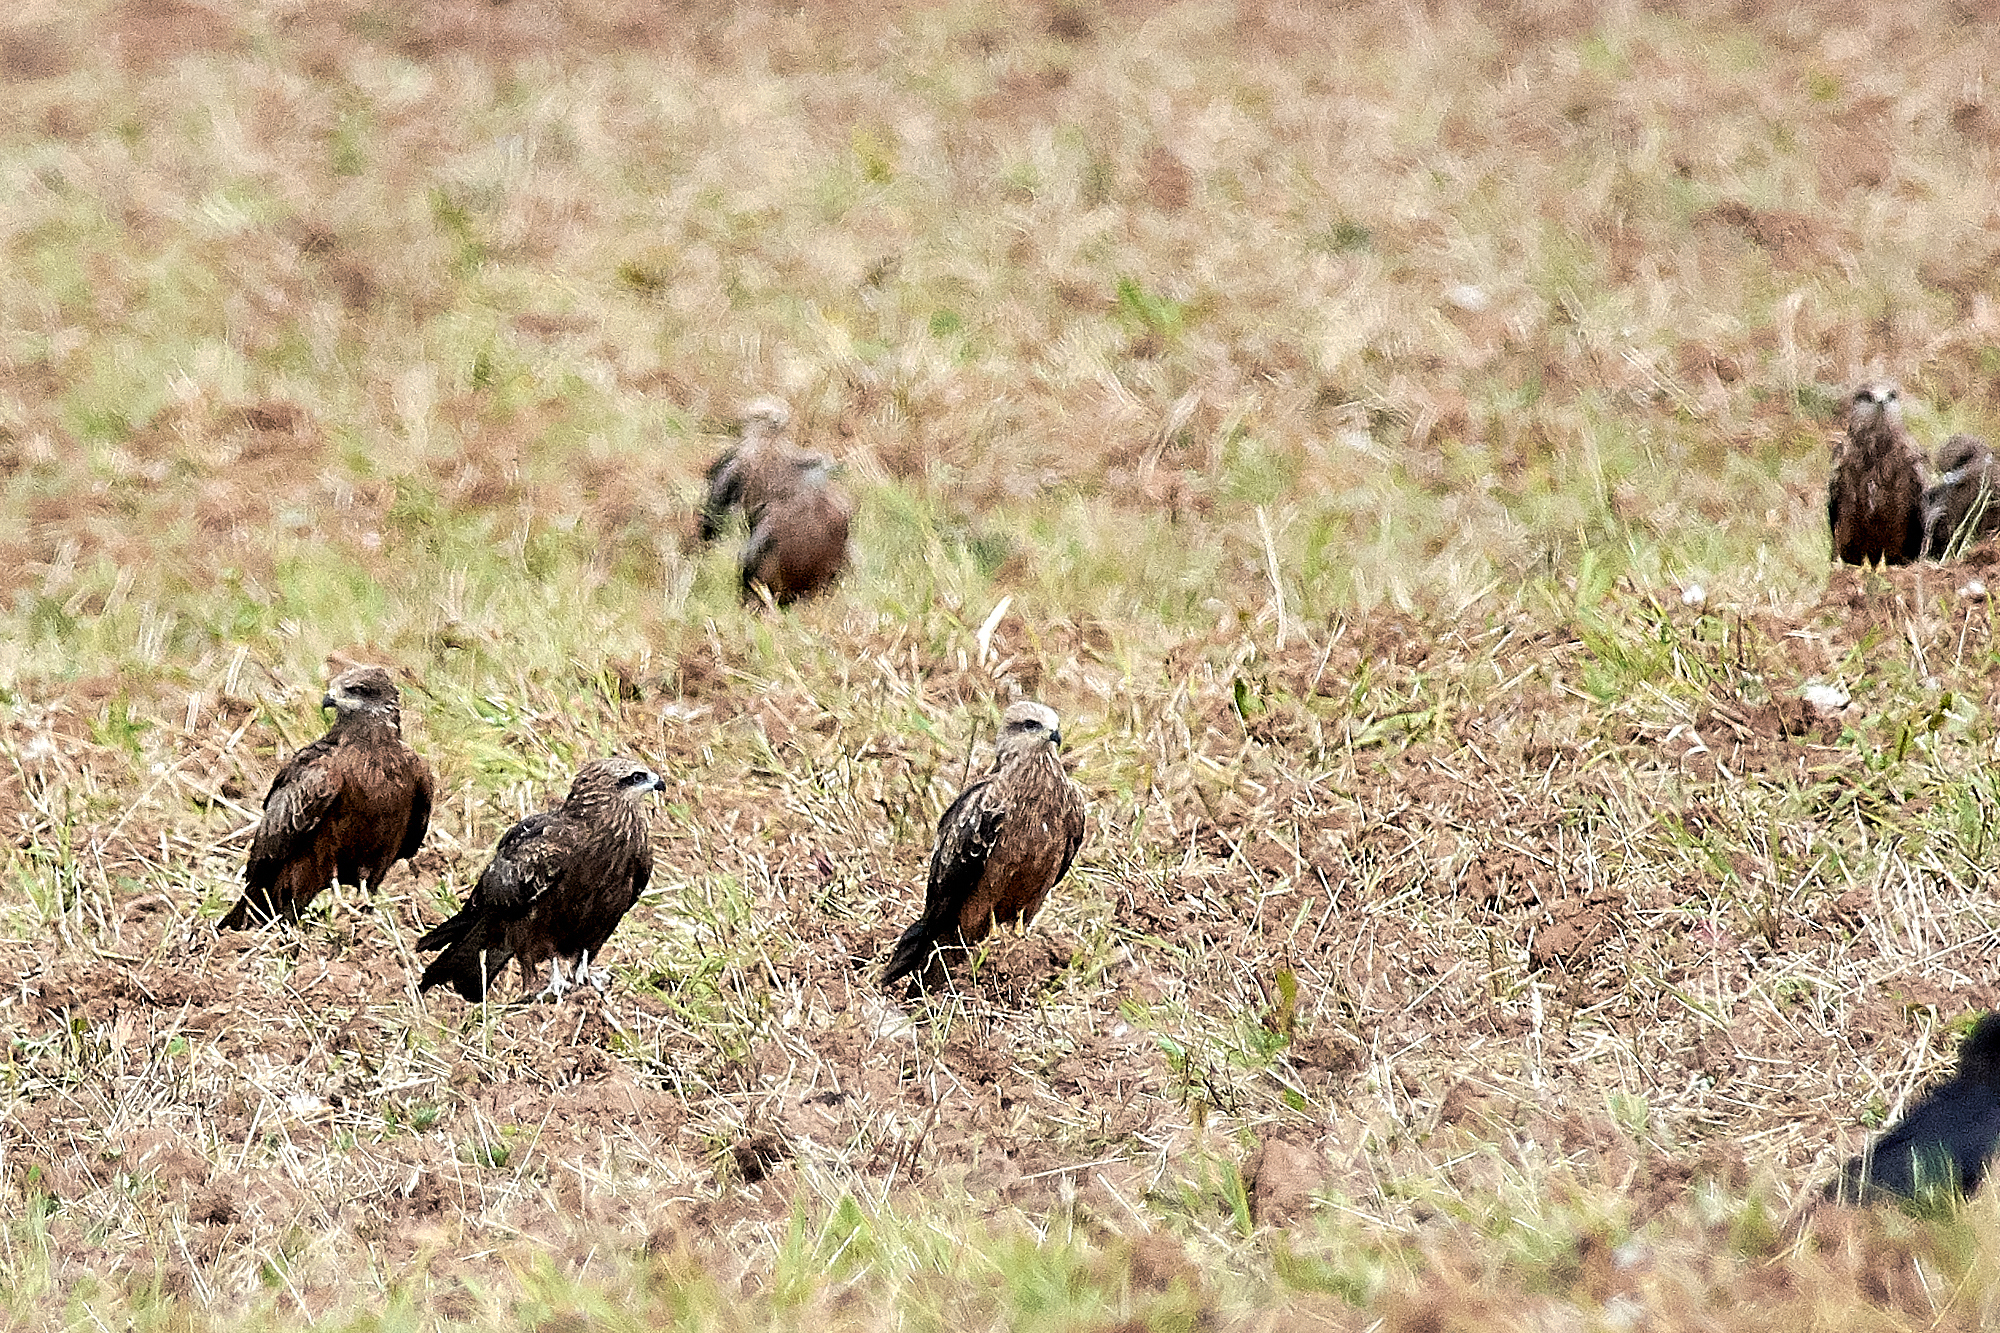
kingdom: Animalia
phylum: Chordata
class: Aves
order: Accipitriformes
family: Accipitridae
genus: Milvus
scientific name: Milvus migrans
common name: Black kite
